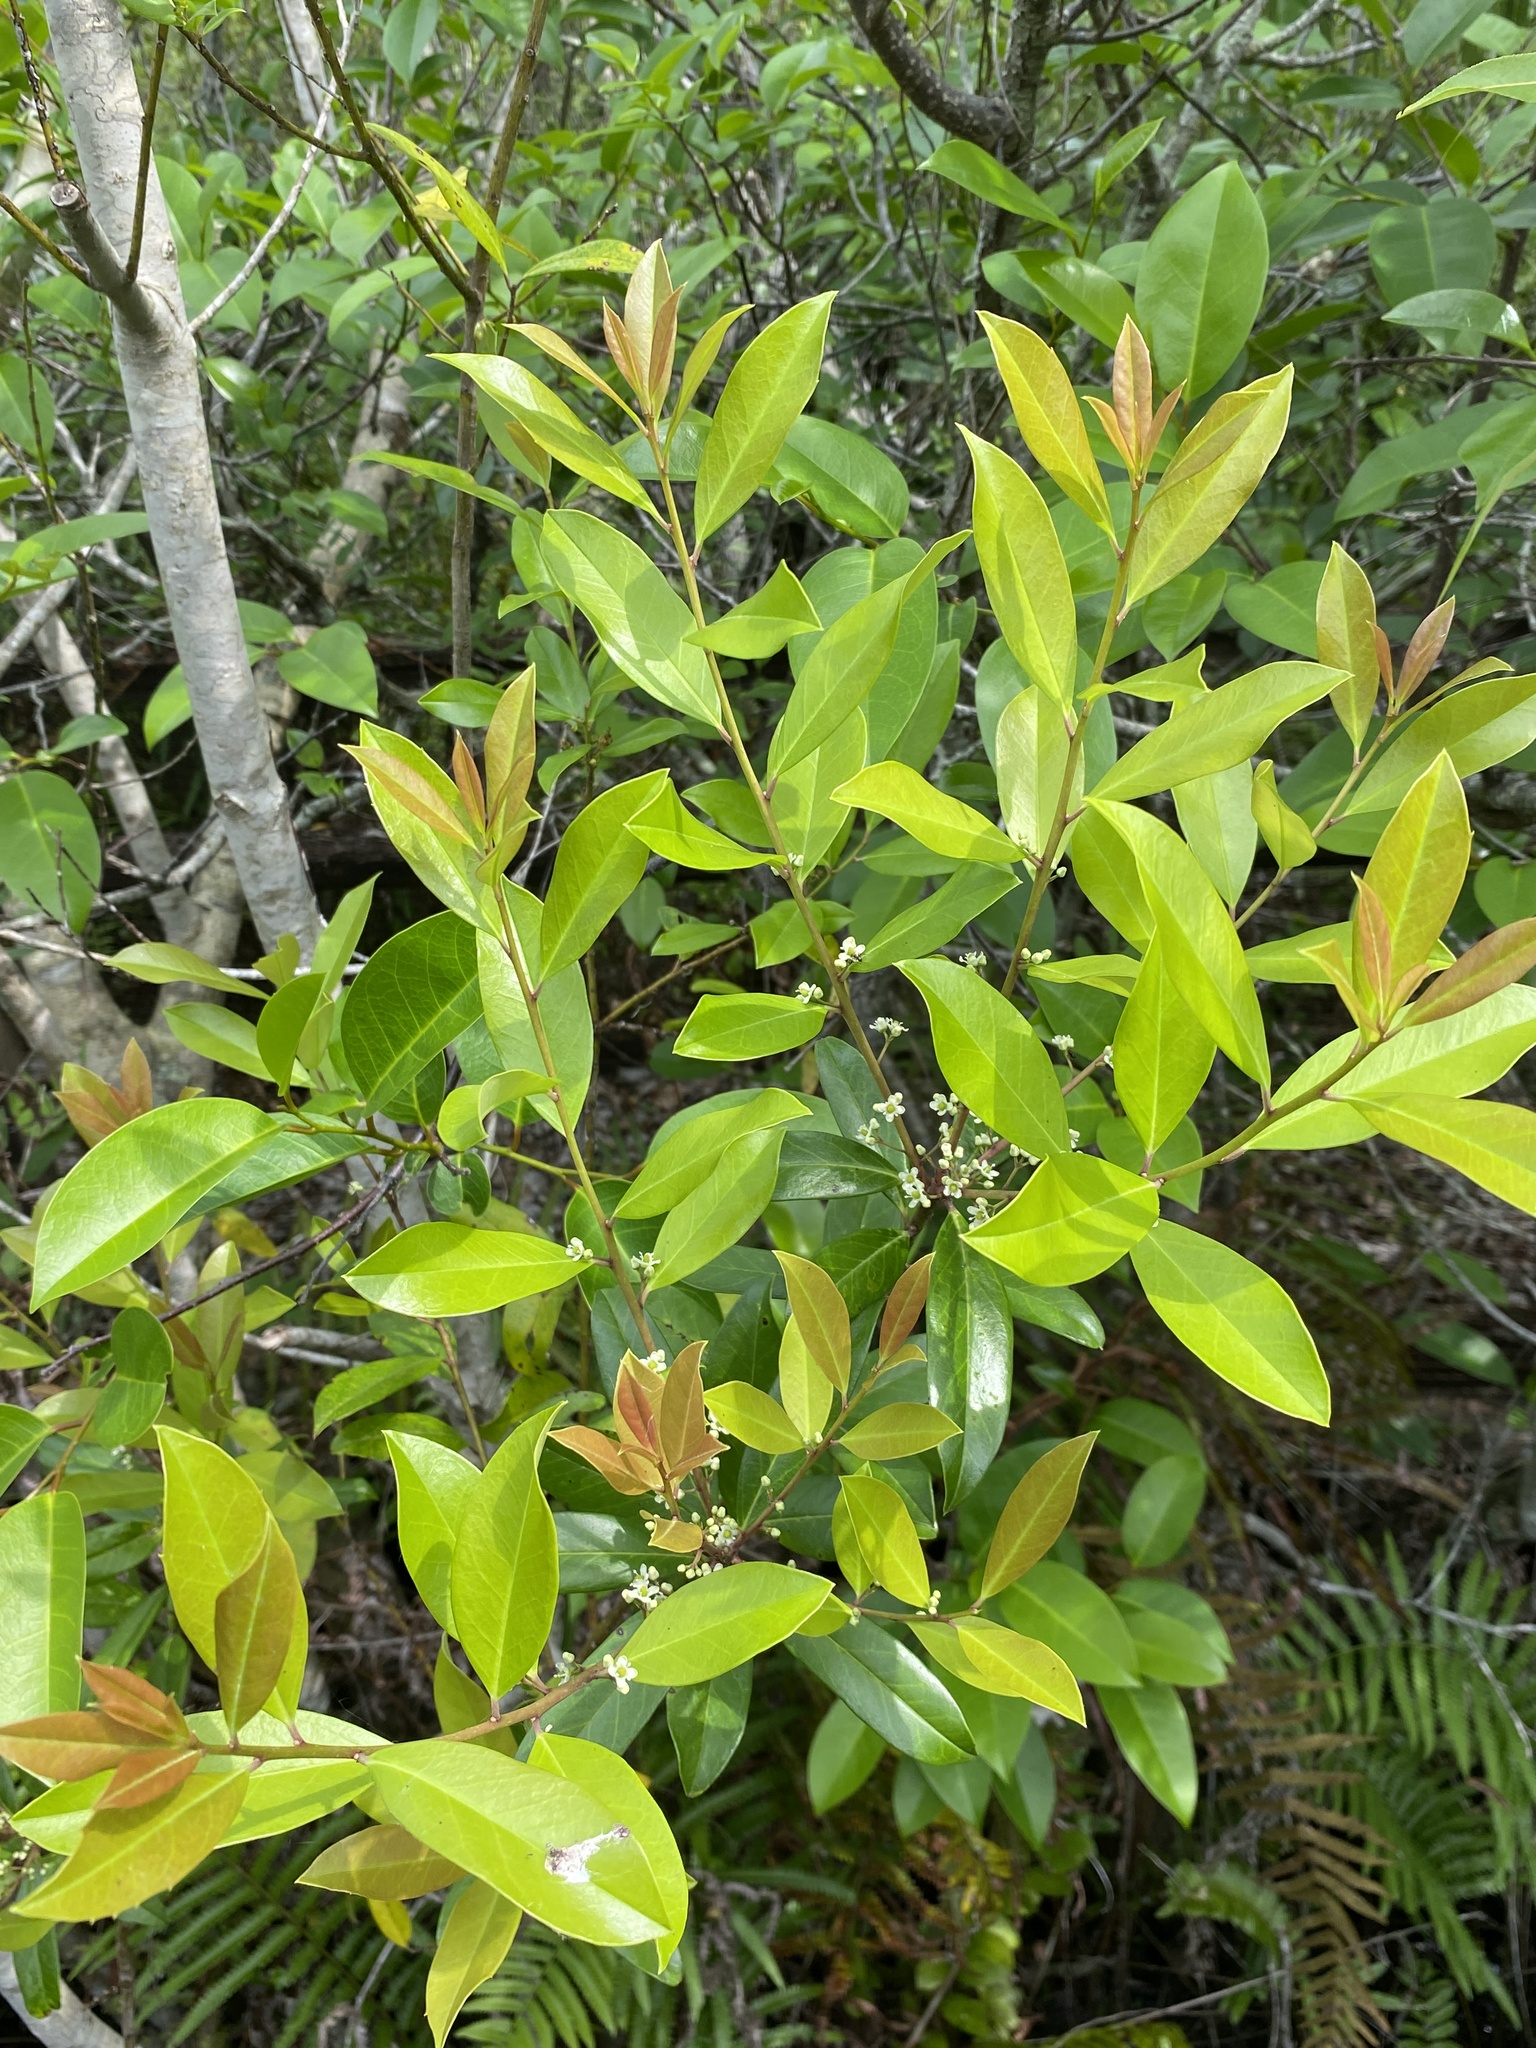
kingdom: Plantae
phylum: Tracheophyta
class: Magnoliopsida
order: Aquifoliales
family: Aquifoliaceae
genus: Ilex
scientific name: Ilex cassine
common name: Dahoon
